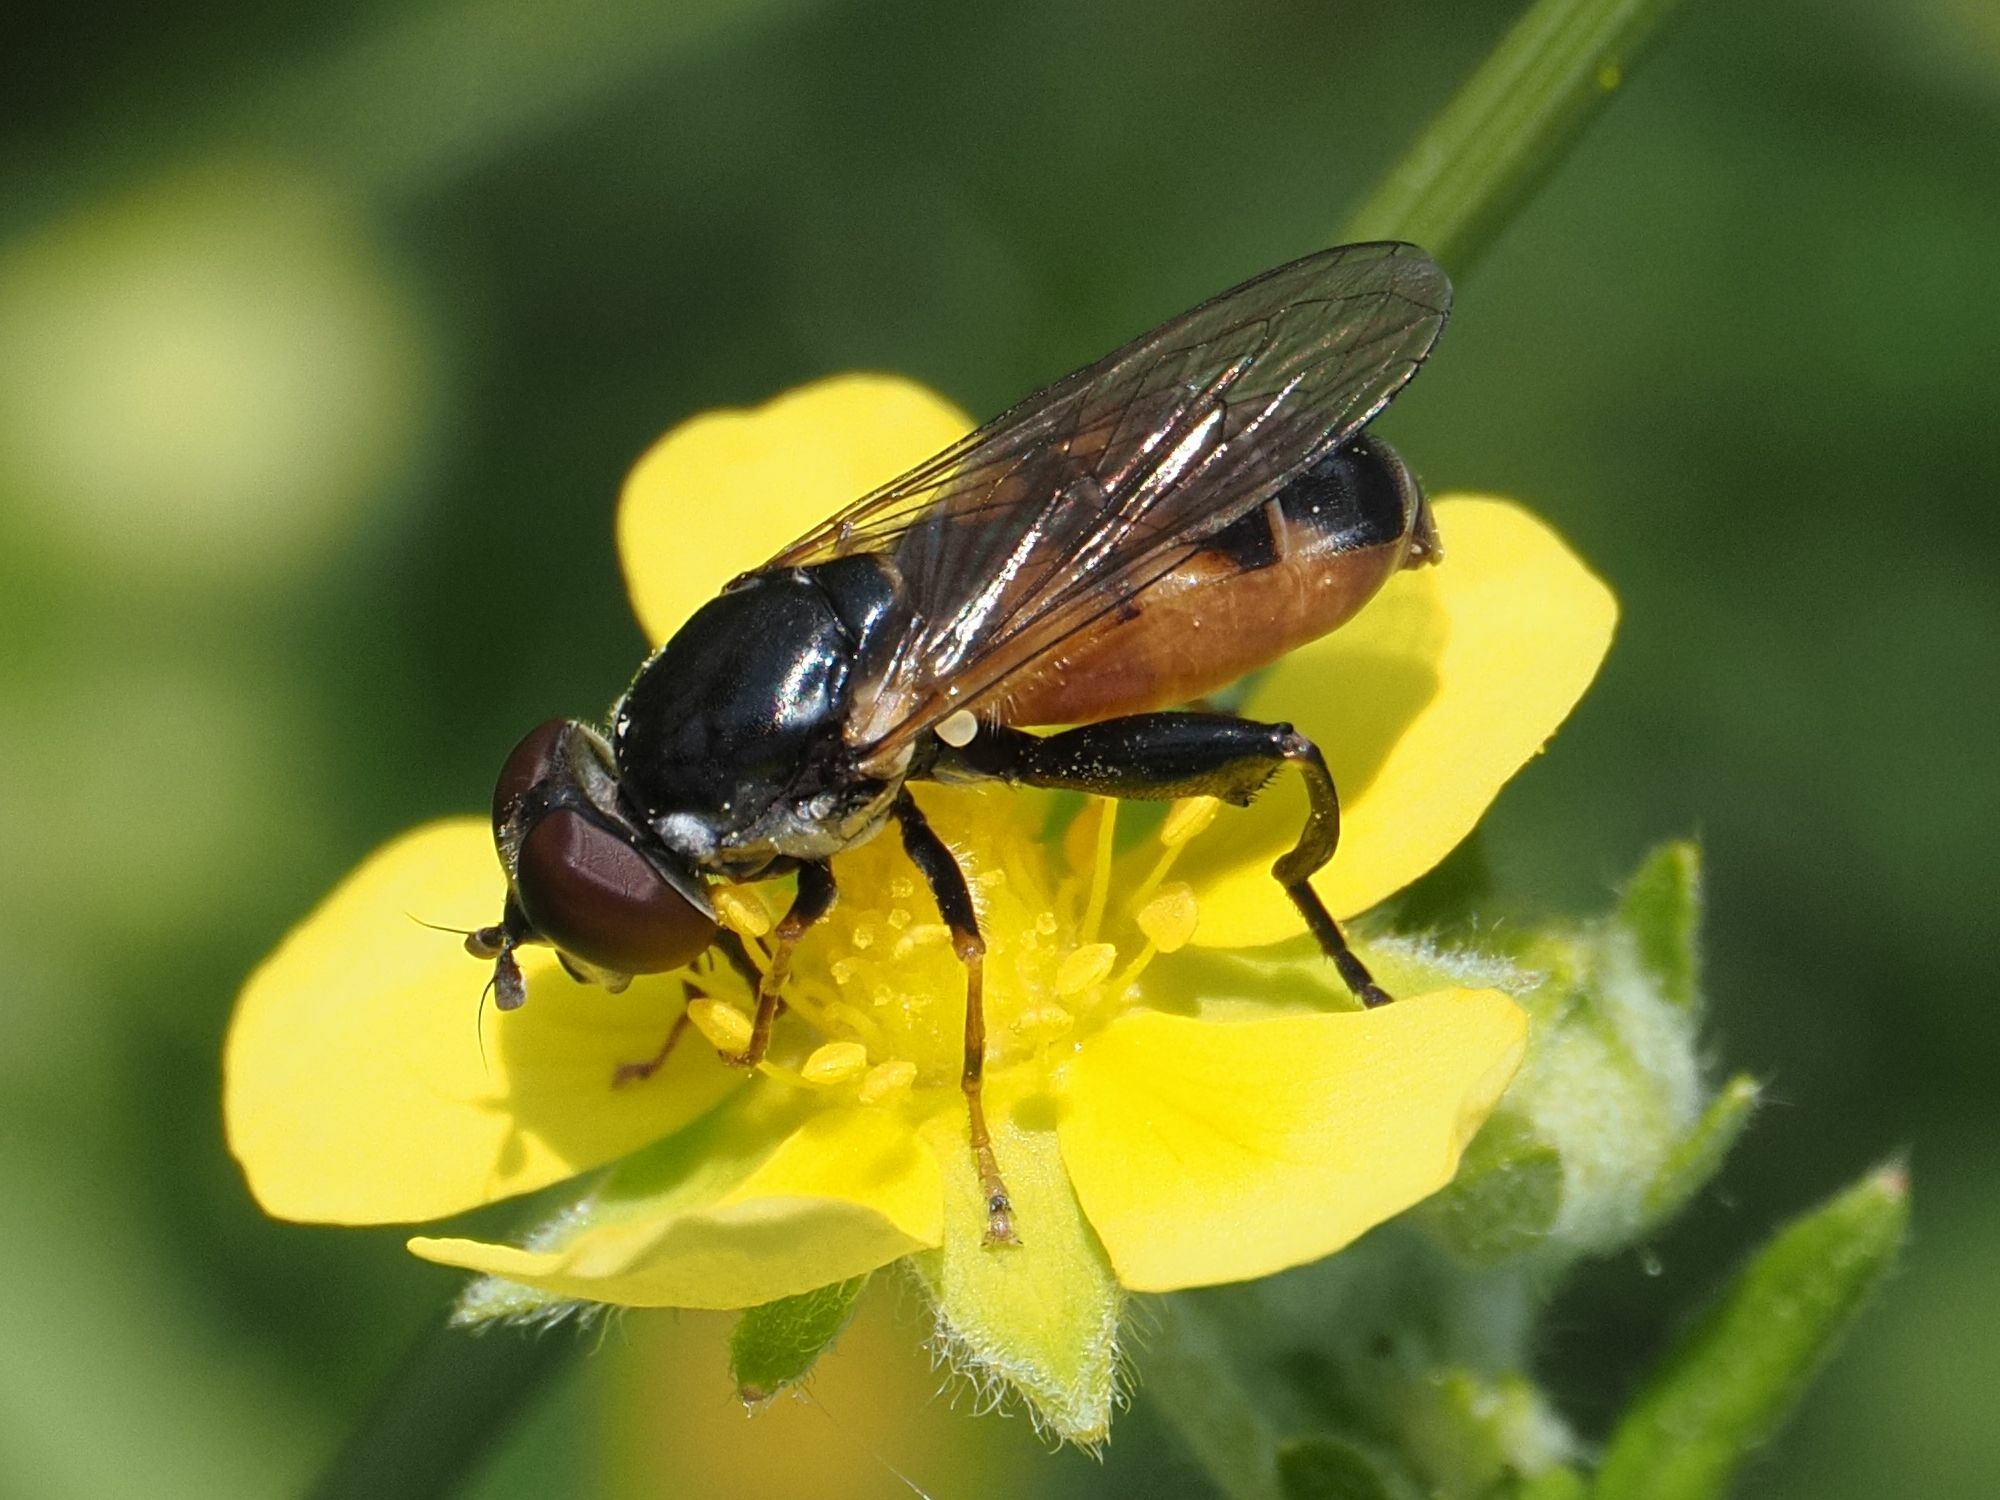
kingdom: Animalia
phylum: Arthropoda
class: Insecta
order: Diptera
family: Syrphidae
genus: Tropidia
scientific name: Tropidia scita
